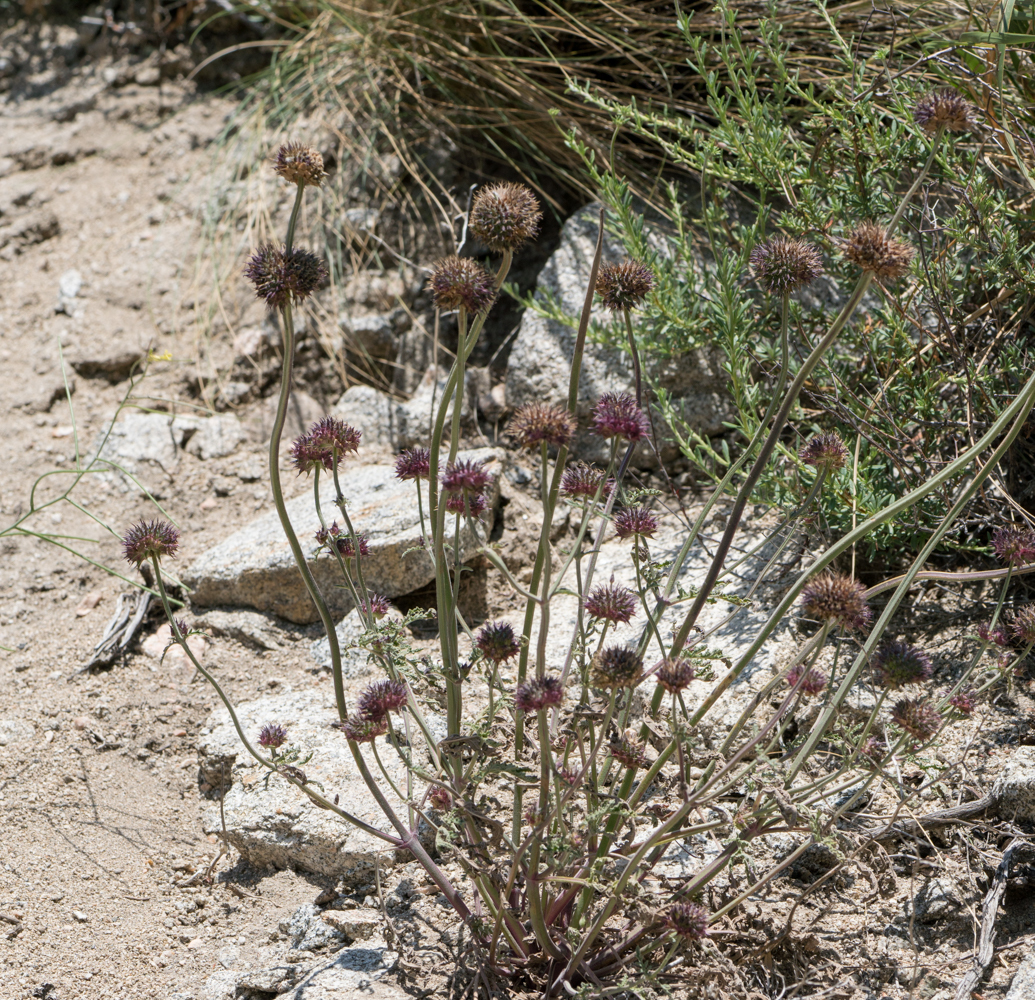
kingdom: Plantae
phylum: Tracheophyta
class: Magnoliopsida
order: Lamiales
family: Lamiaceae
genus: Salvia
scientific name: Salvia columbariae
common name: Chia
